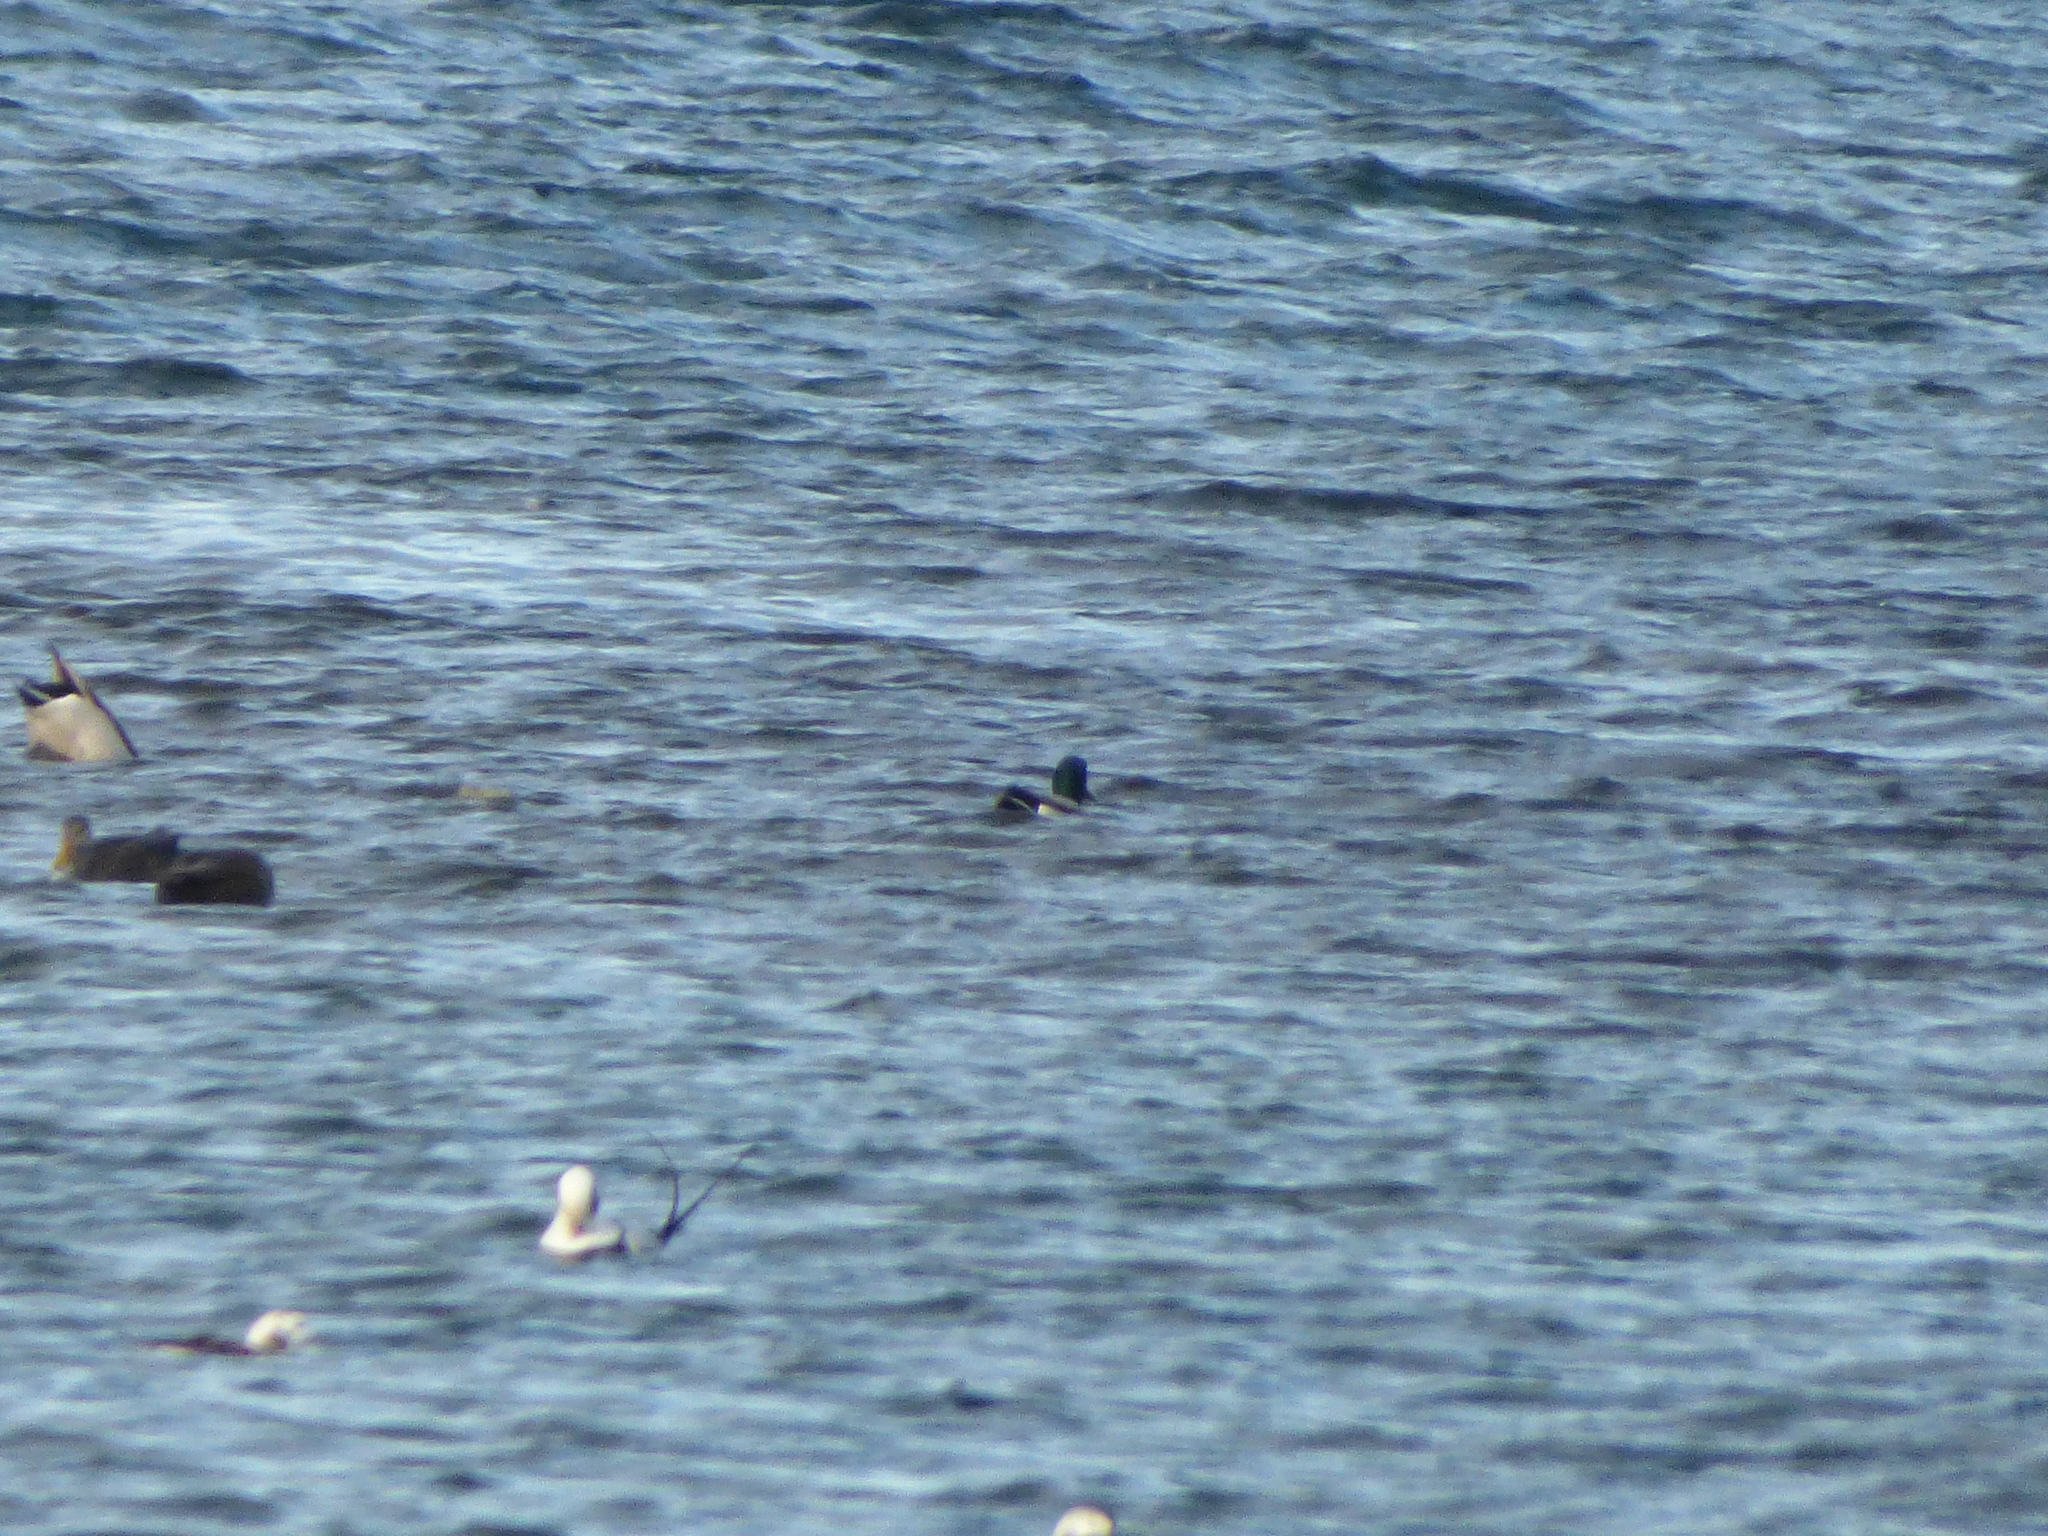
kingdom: Animalia
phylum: Chordata
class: Aves
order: Anseriformes
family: Anatidae
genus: Anas
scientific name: Anas platyrhynchos
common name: Mallard
